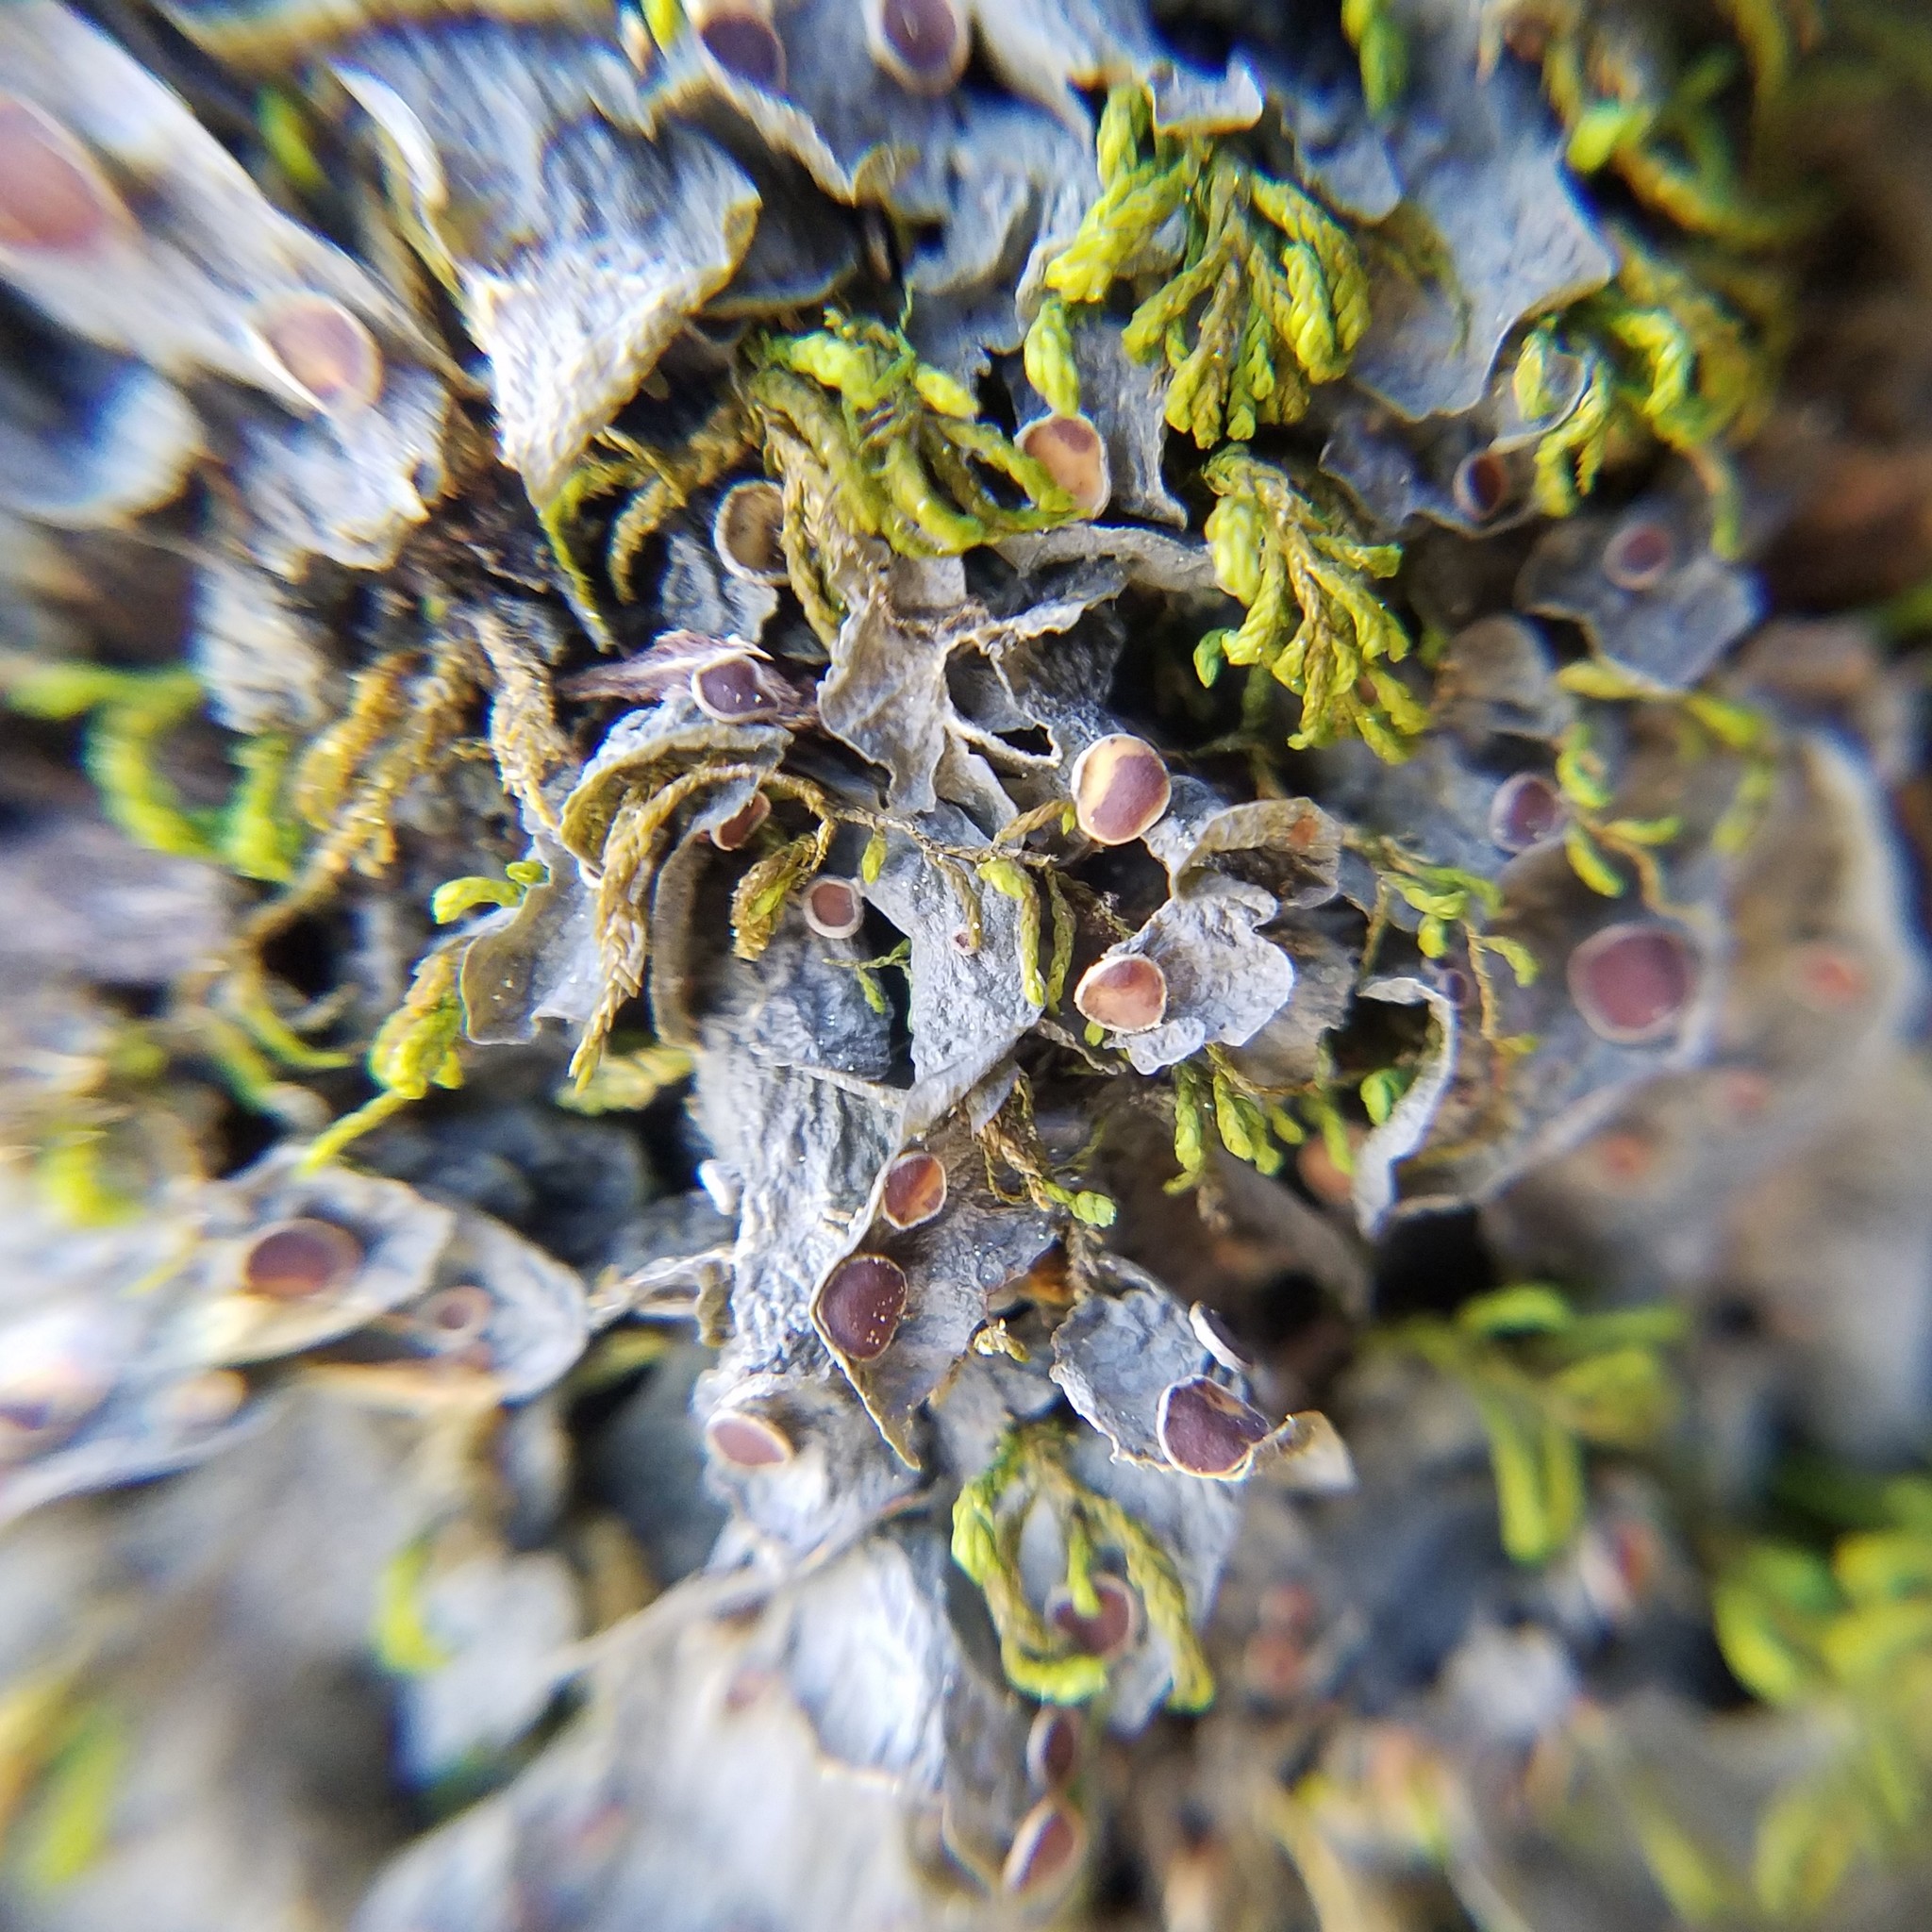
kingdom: Fungi
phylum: Ascomycota
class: Lecanoromycetes
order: Peltigerales
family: Collemataceae
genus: Leptogium
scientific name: Leptogium corticola
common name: Blistered jellyskin lichen
